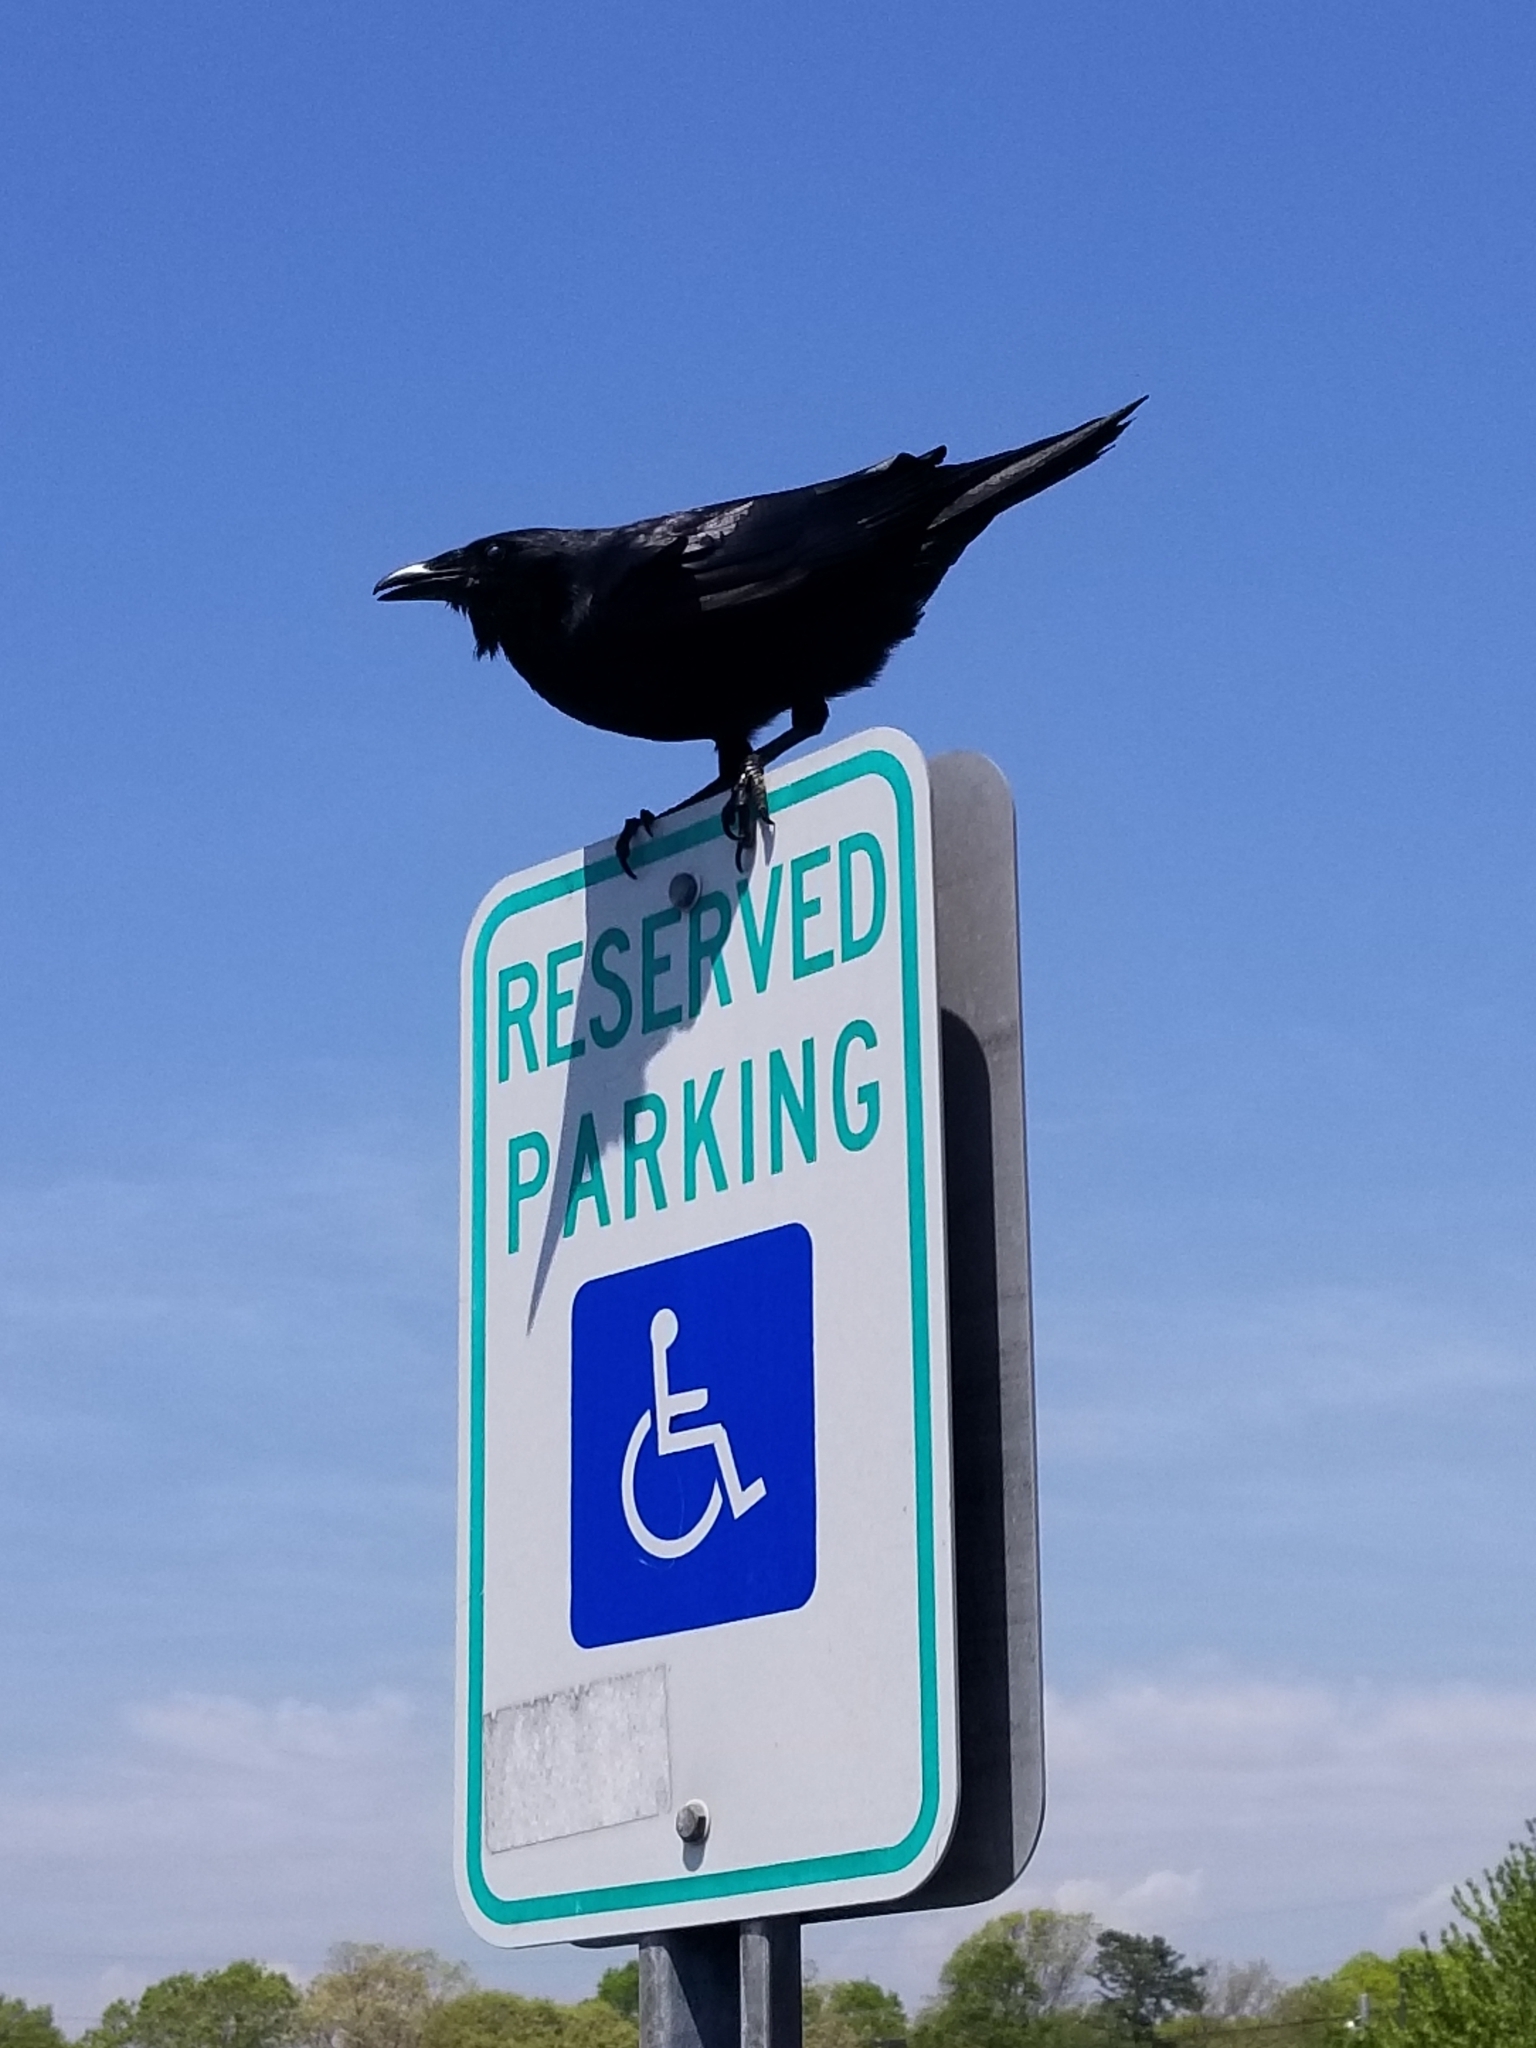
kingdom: Animalia
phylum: Chordata
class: Aves
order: Passeriformes
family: Corvidae
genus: Corvus
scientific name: Corvus corax
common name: Common raven
